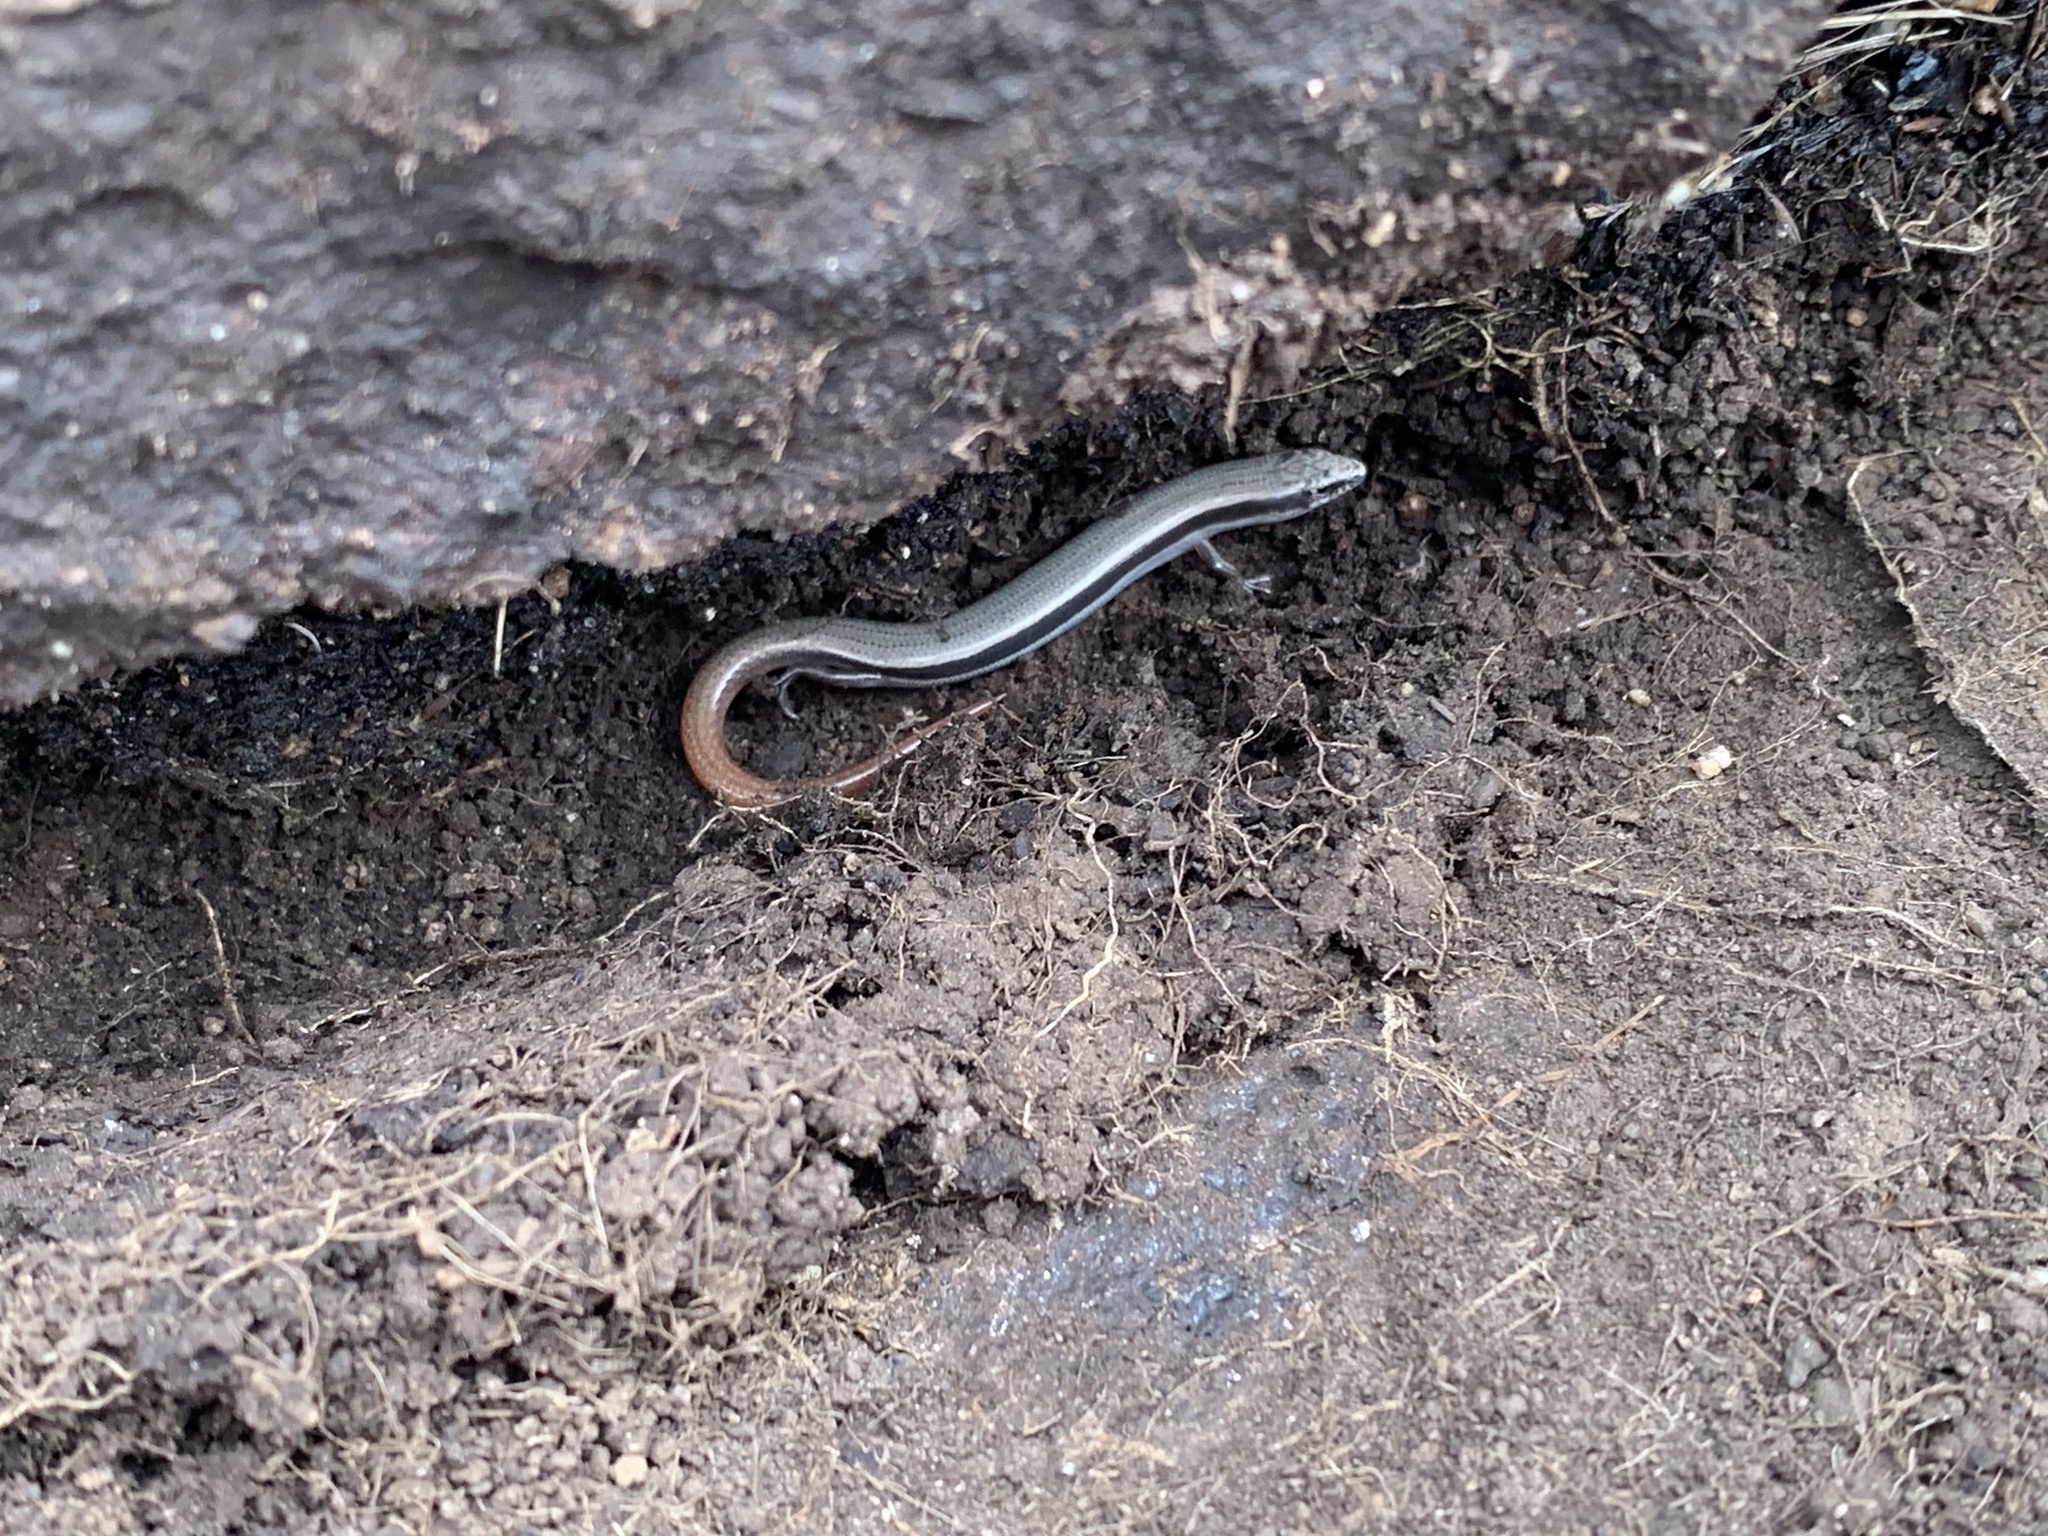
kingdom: Animalia
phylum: Chordata
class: Squamata
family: Scincidae
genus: Lerista
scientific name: Lerista bougainvillii
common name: South-eastern slider
